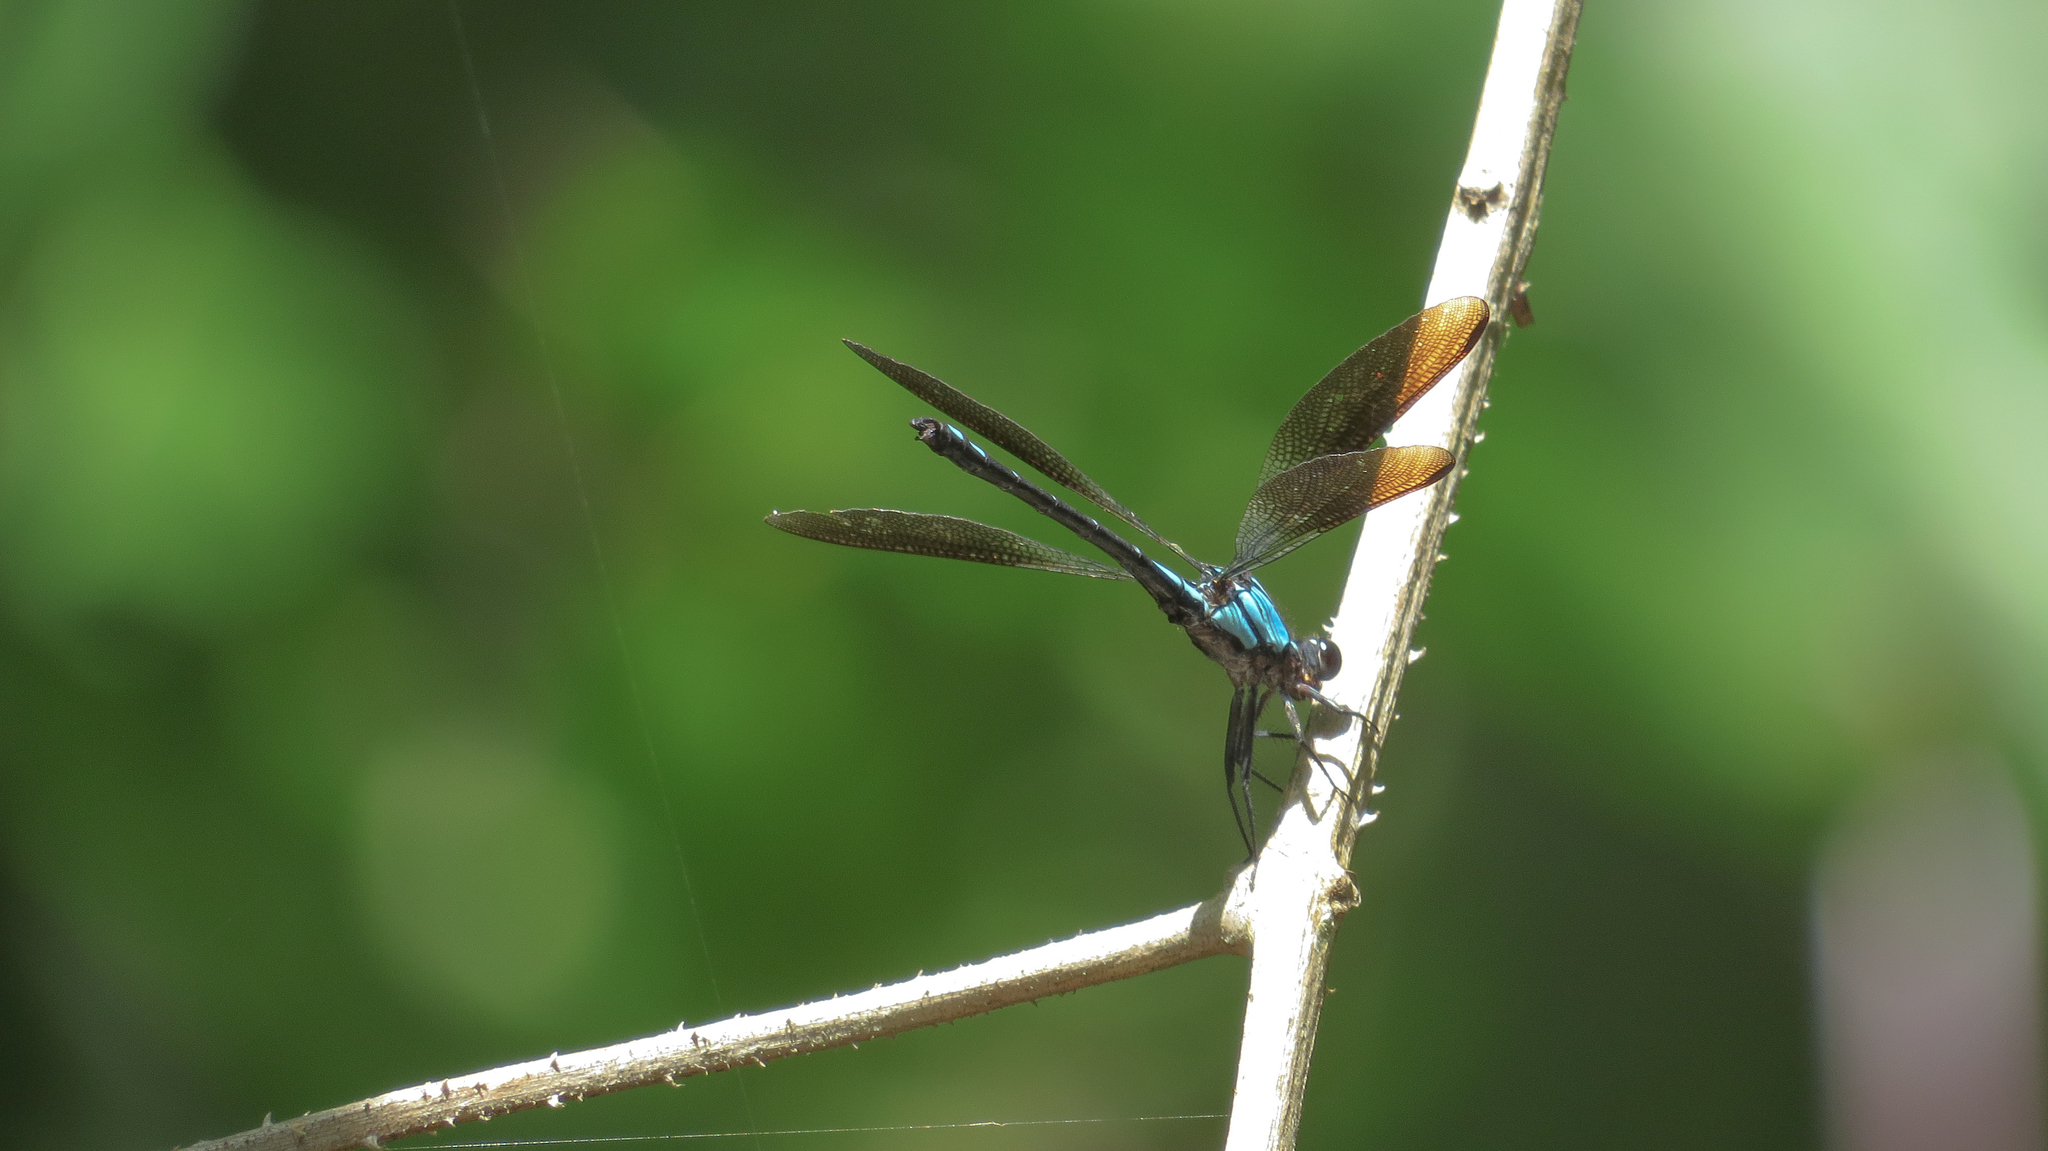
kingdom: Animalia
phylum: Arthropoda
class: Insecta
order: Odonata
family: Lestoideidae
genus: Diphlebia
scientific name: Diphlebia coerulescens
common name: Sapphire rockmaster
